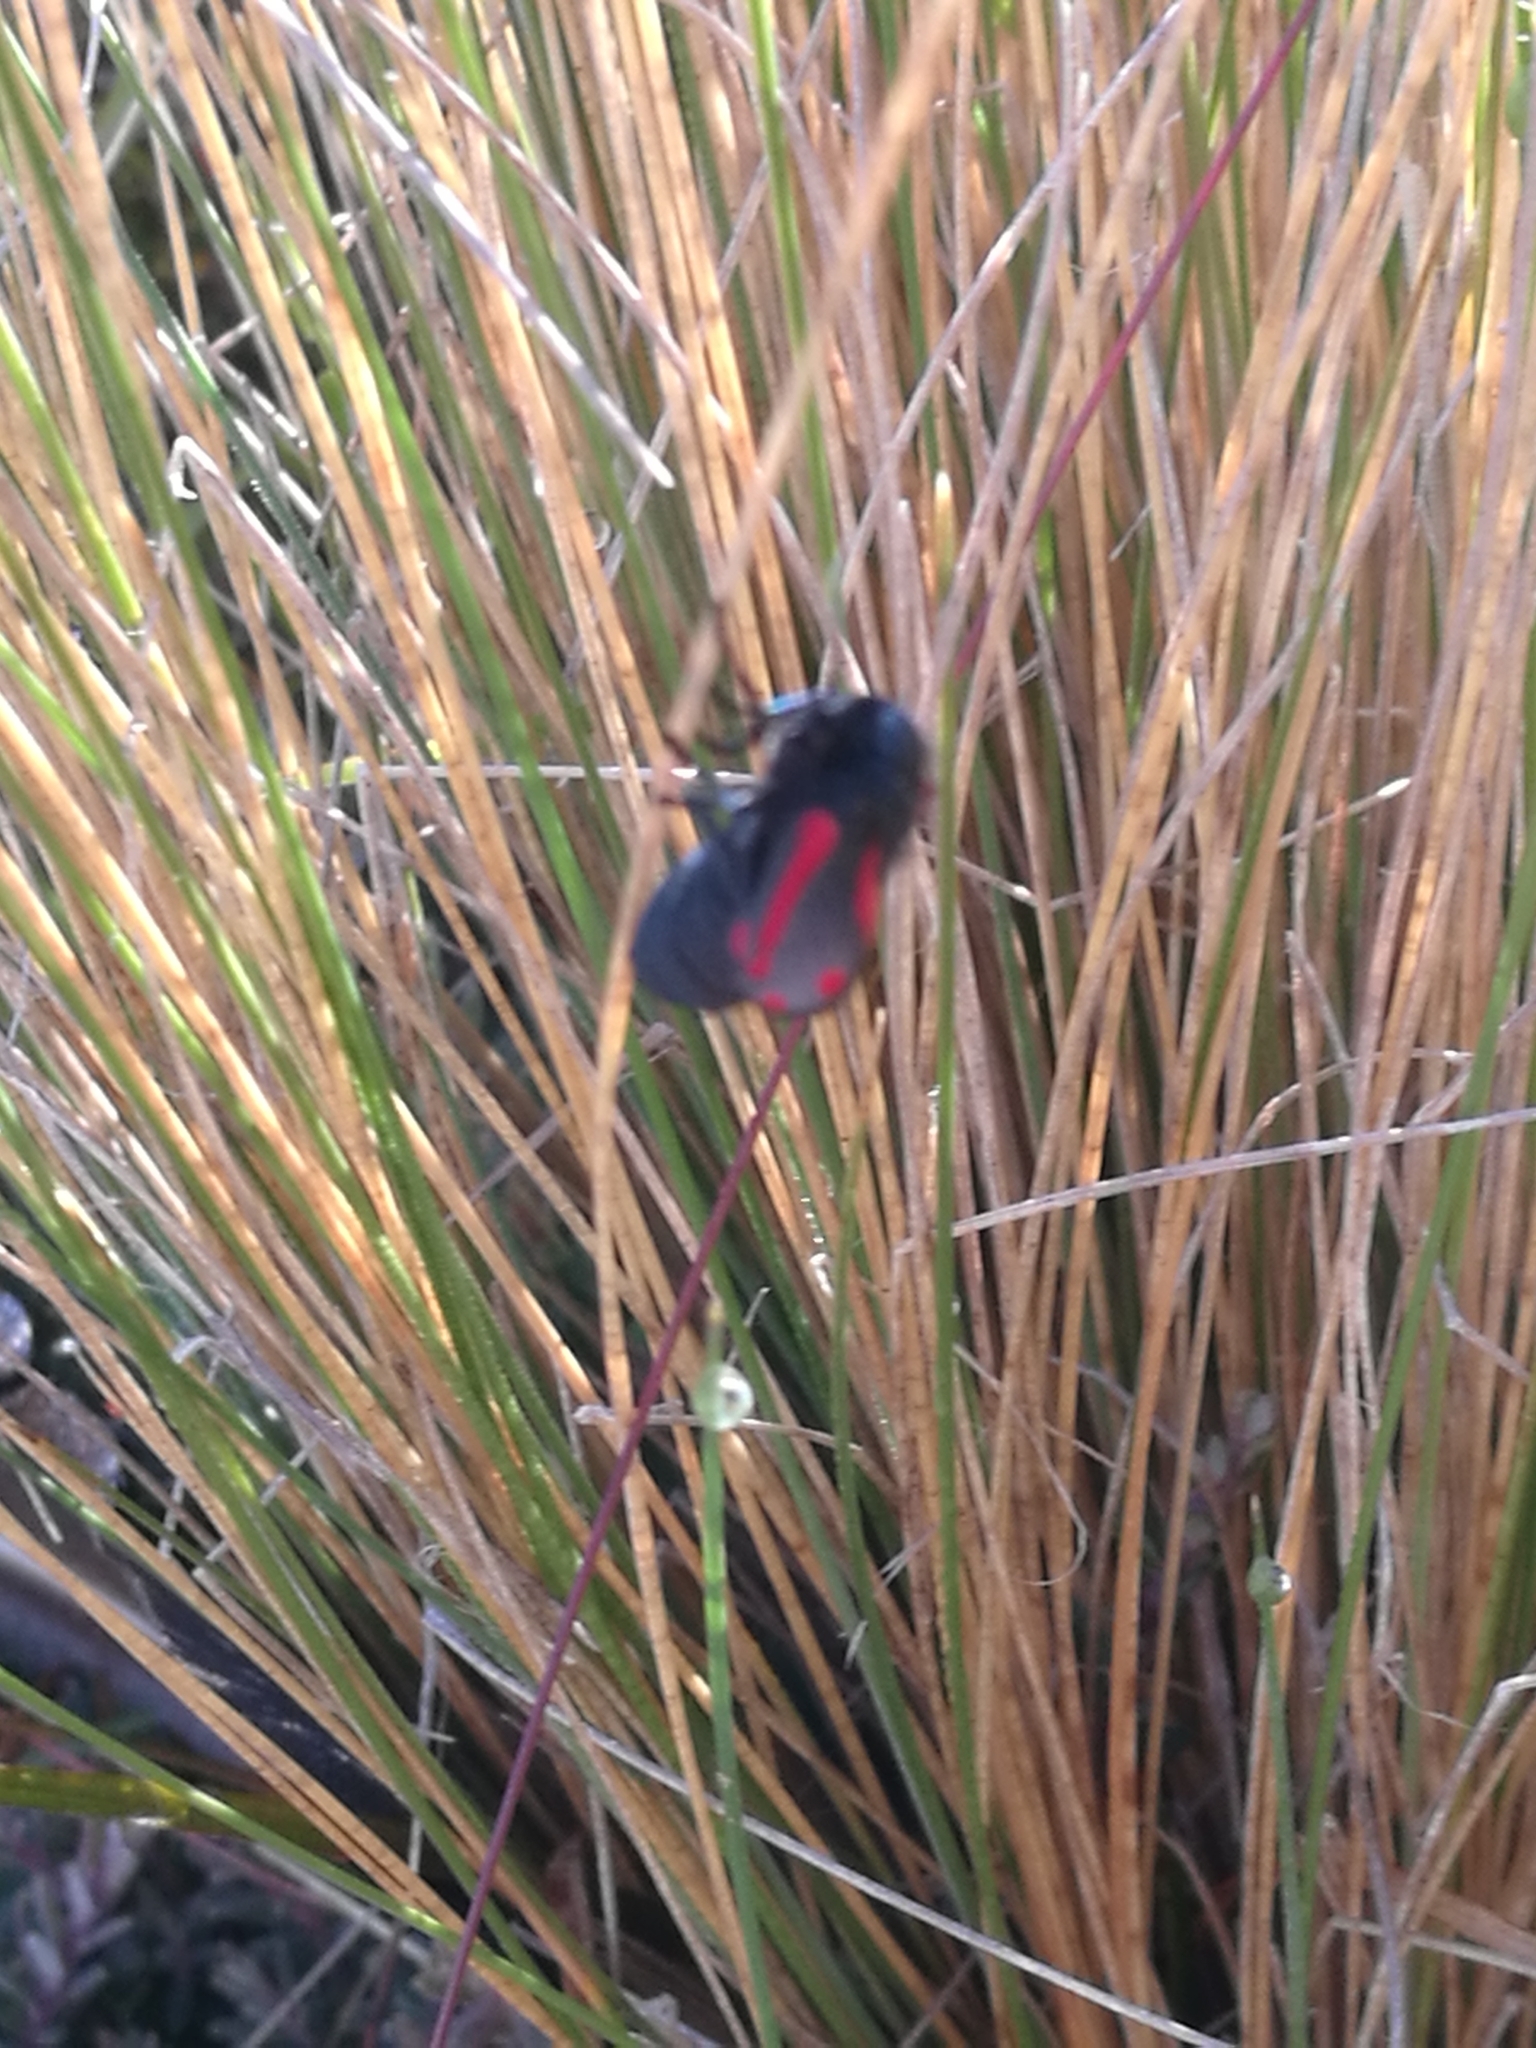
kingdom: Animalia
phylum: Arthropoda
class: Insecta
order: Lepidoptera
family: Erebidae
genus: Tyria
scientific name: Tyria jacobaeae
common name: Cinnabar
